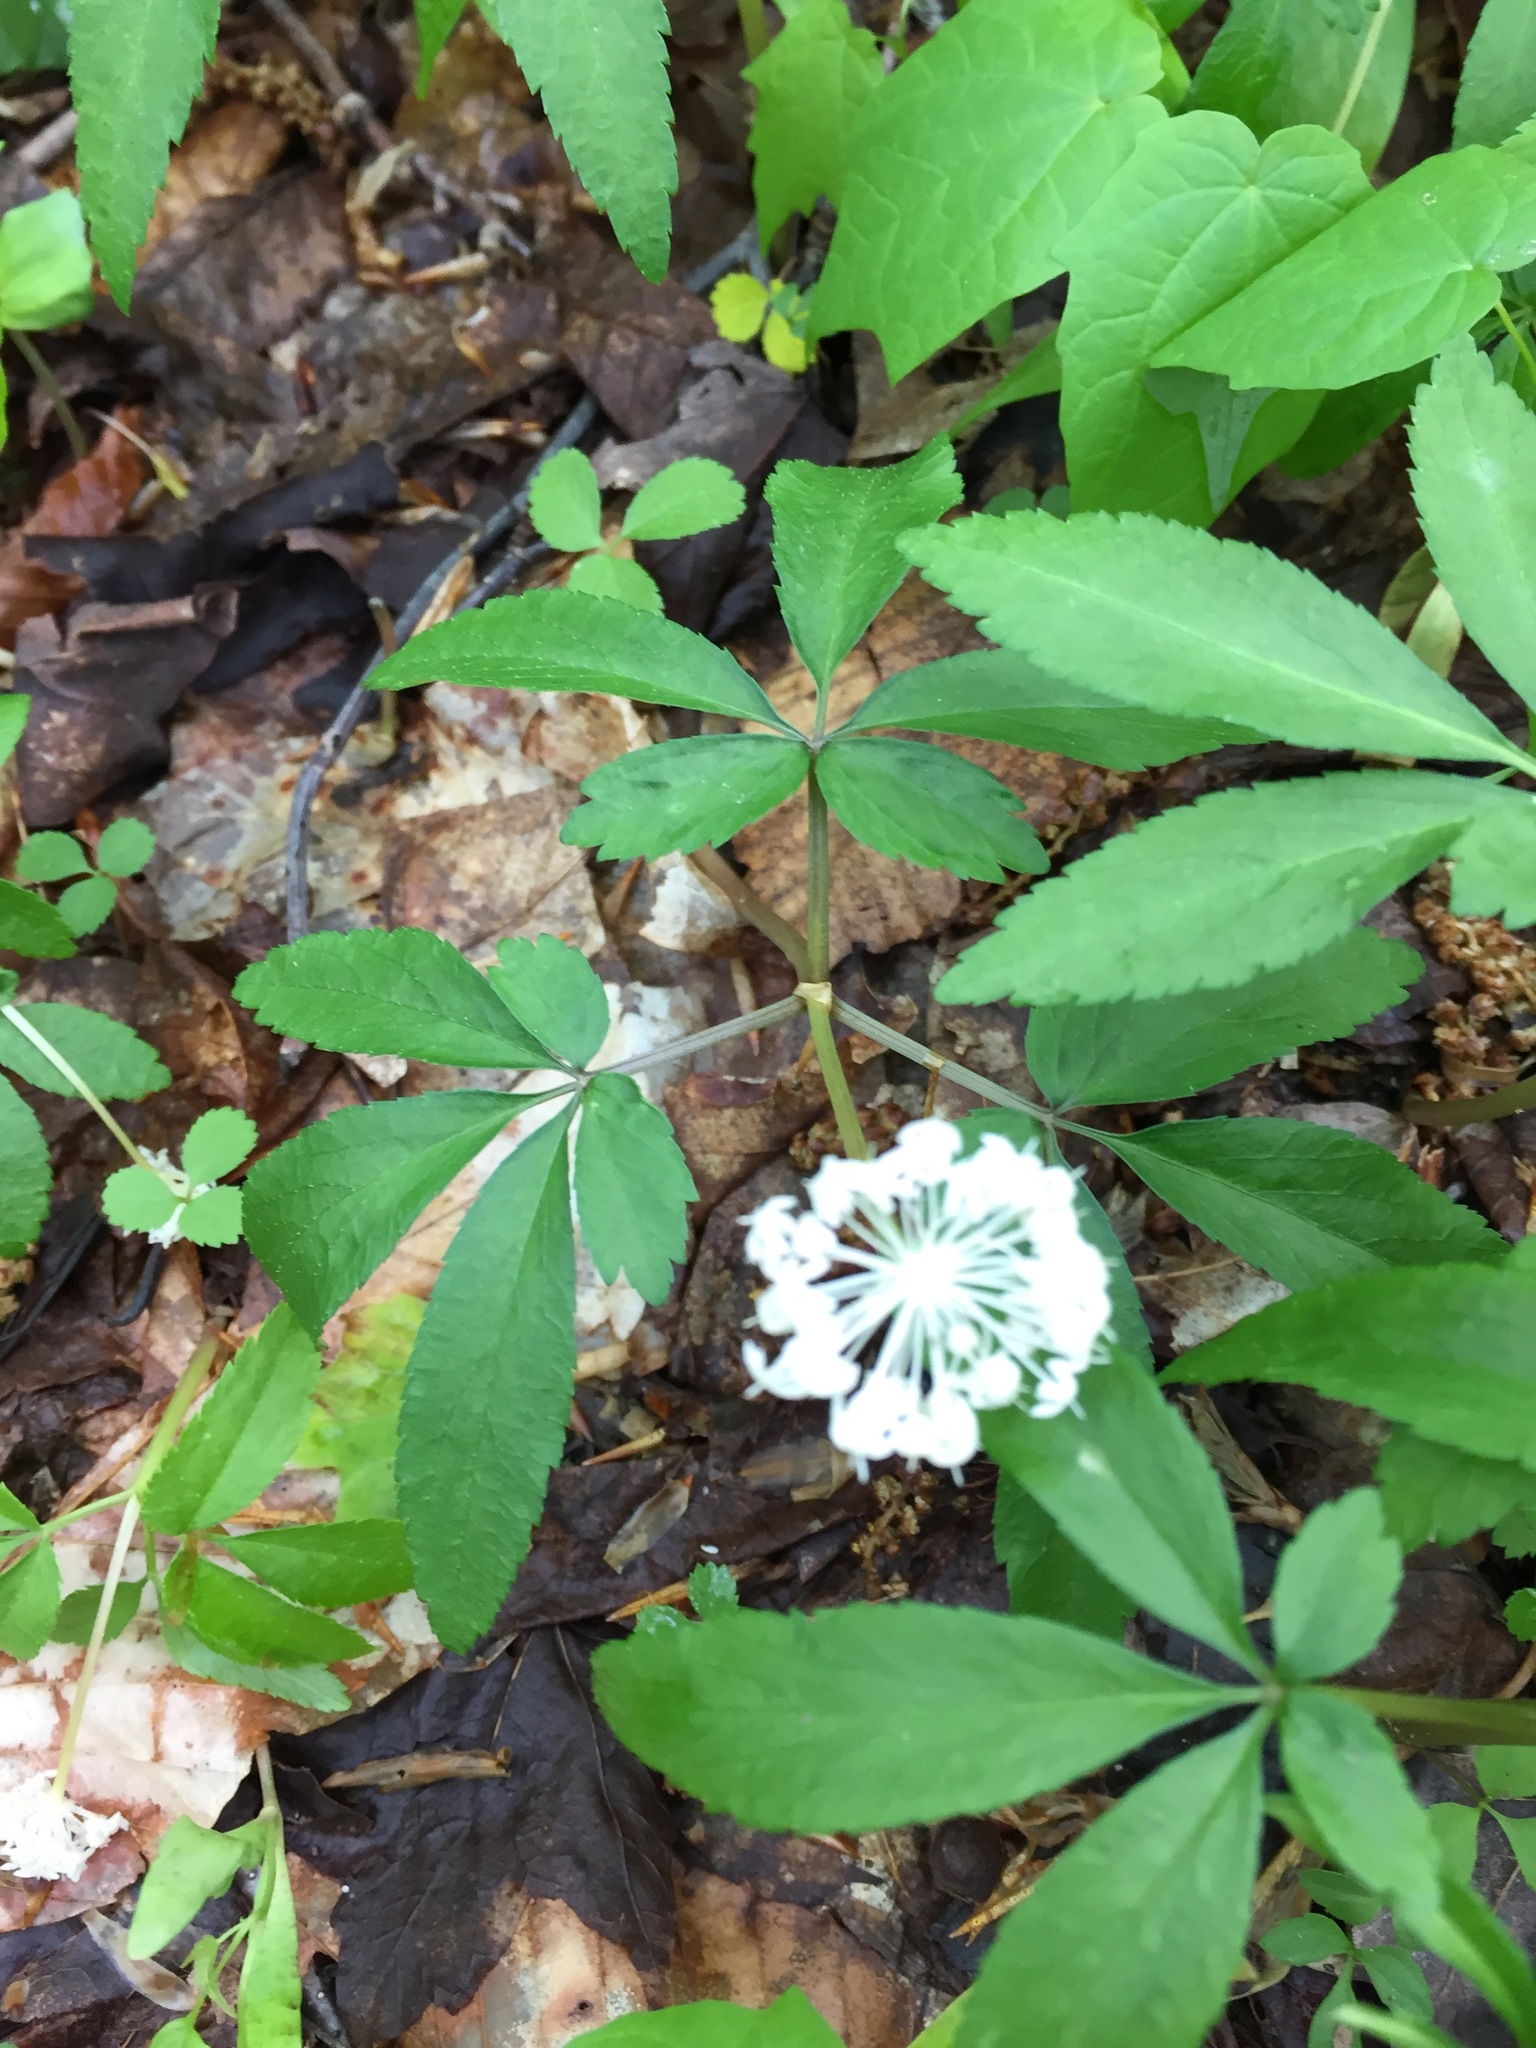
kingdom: Plantae
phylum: Tracheophyta
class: Magnoliopsida
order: Apiales
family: Araliaceae
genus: Panax
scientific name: Panax trifolius
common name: Dwarf ginseng
